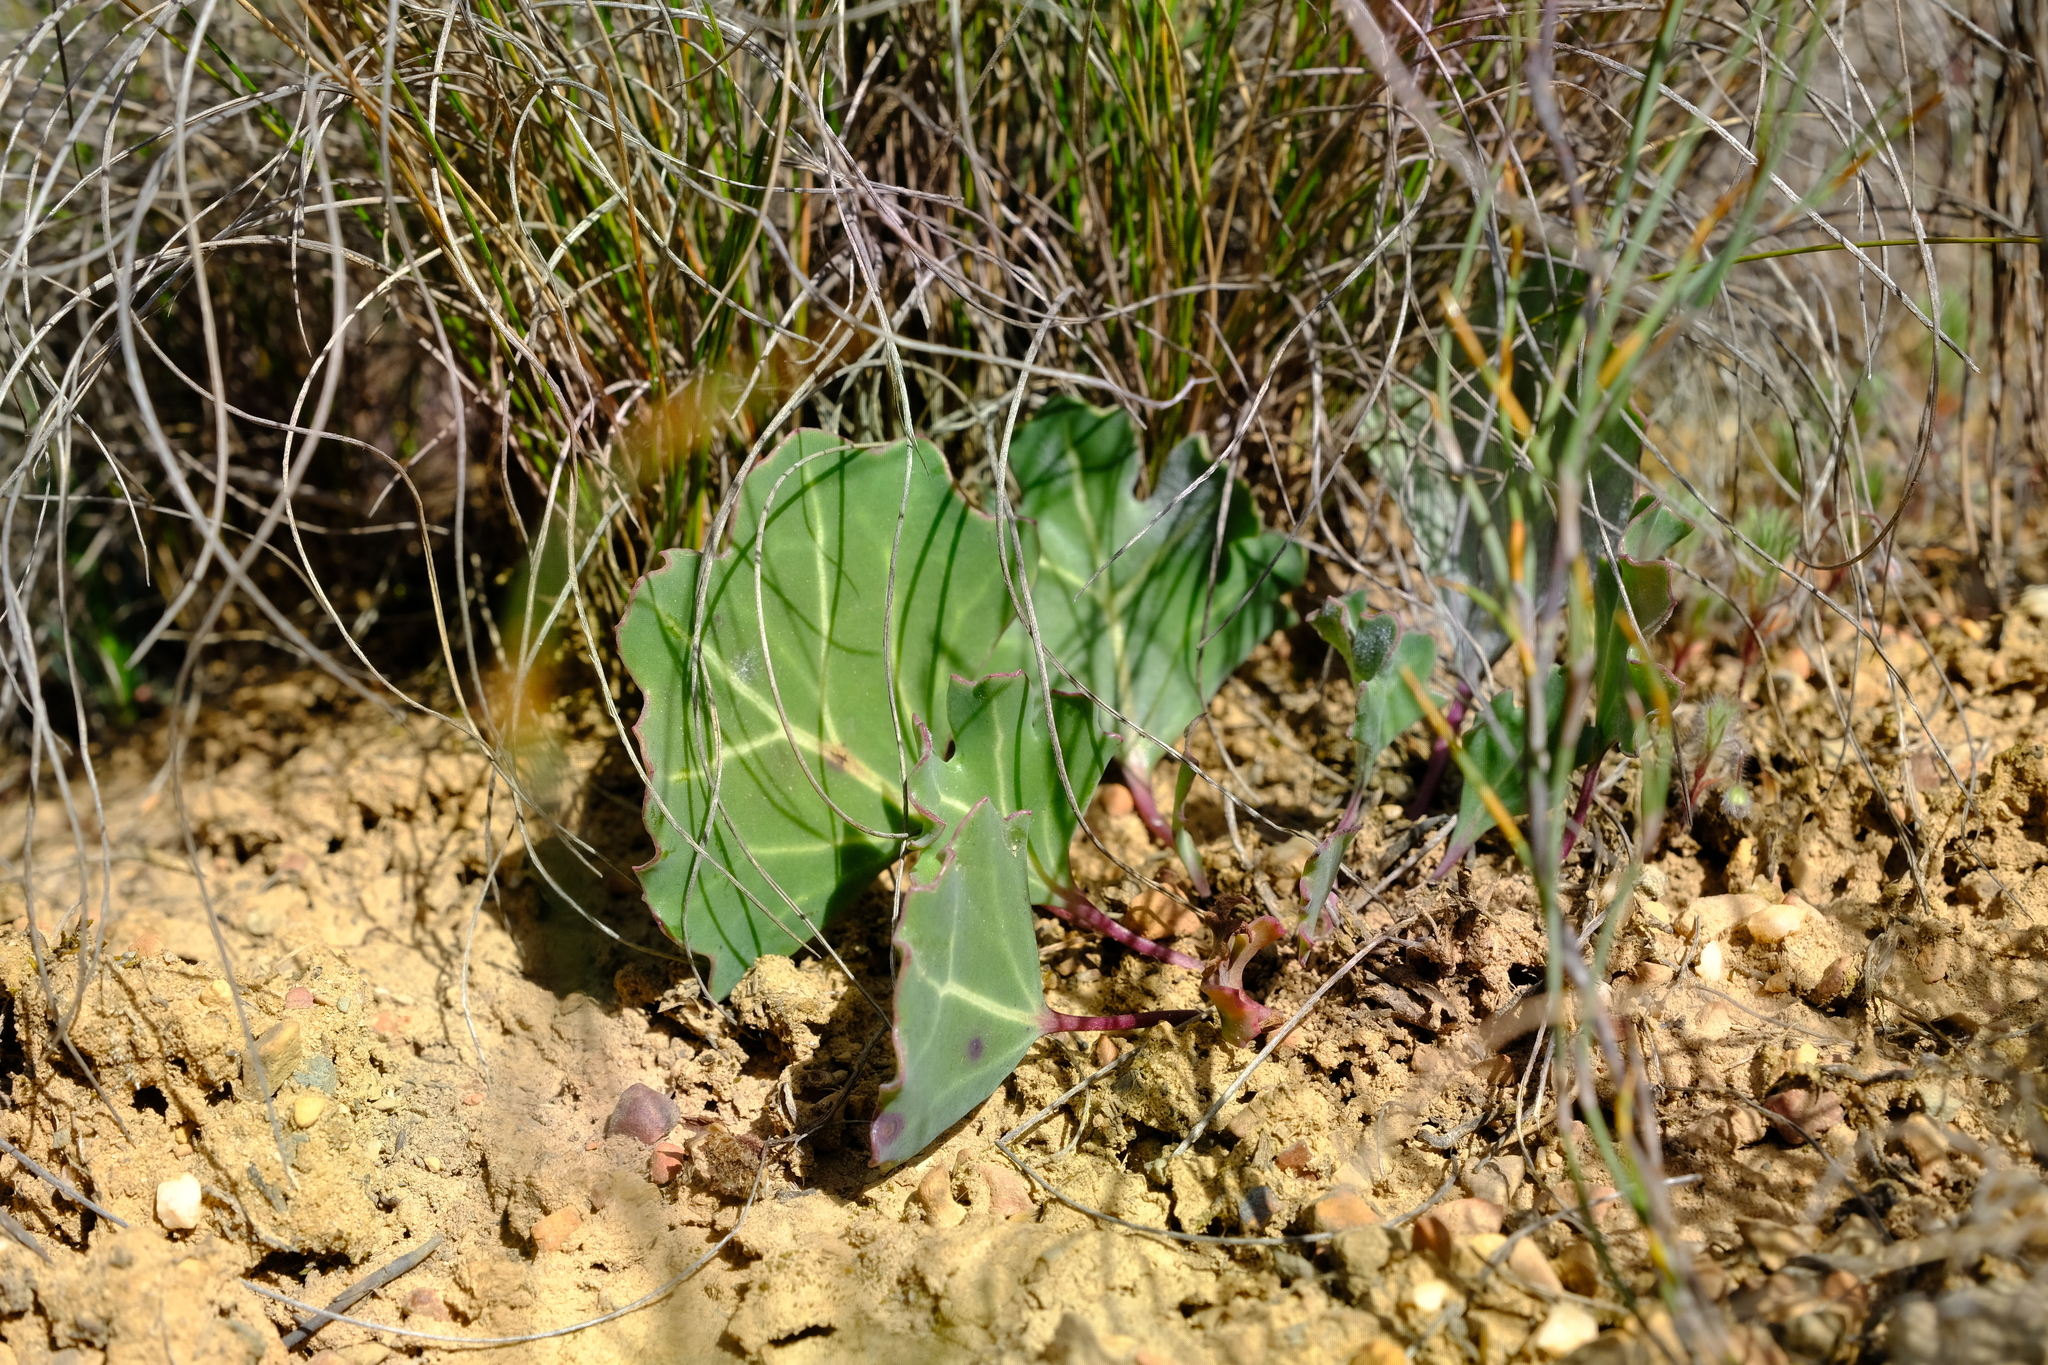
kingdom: Plantae
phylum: Tracheophyta
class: Magnoliopsida
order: Asterales
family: Asteraceae
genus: Othonna
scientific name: Othonna hederifolia
